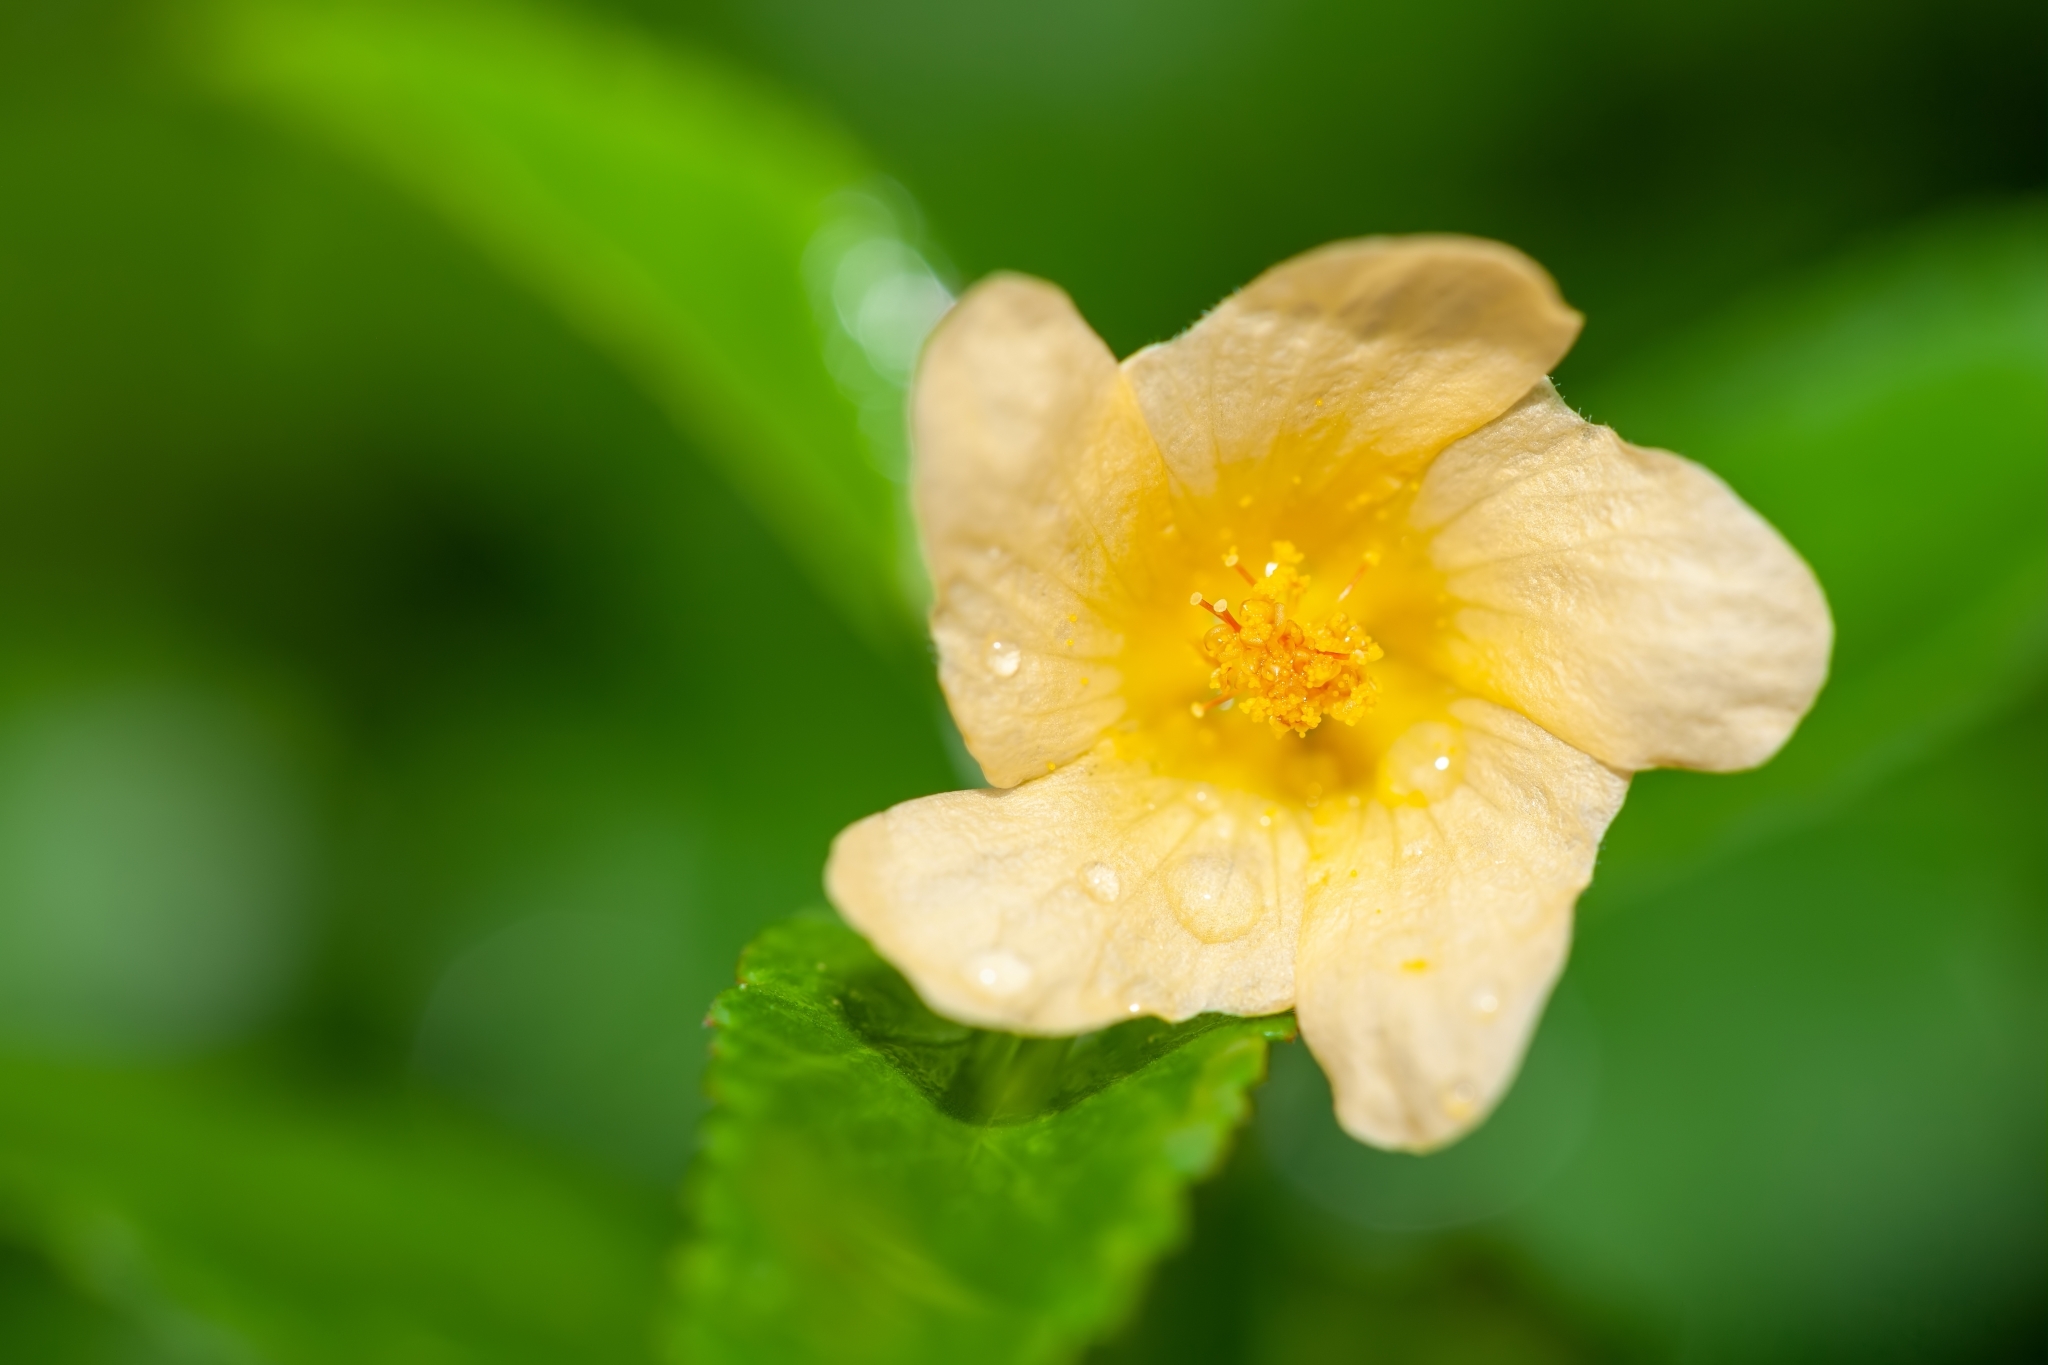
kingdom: Plantae
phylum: Tracheophyta
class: Magnoliopsida
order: Malvales
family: Malvaceae
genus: Sida
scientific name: Sida rhombifolia
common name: Queensland-hemp
